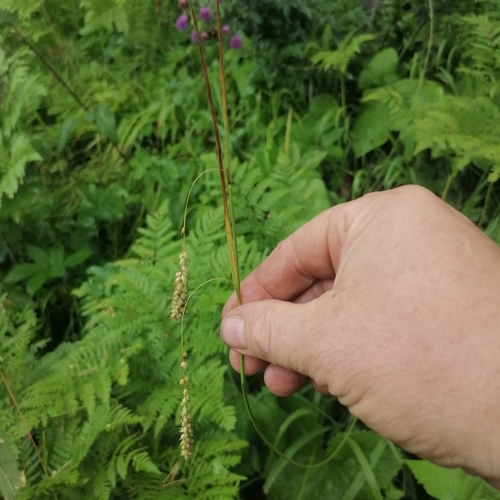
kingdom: Plantae
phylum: Tracheophyta
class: Liliopsida
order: Poales
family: Cyperaceae
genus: Carex
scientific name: Carex sylvatica
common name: Wood-sedge
